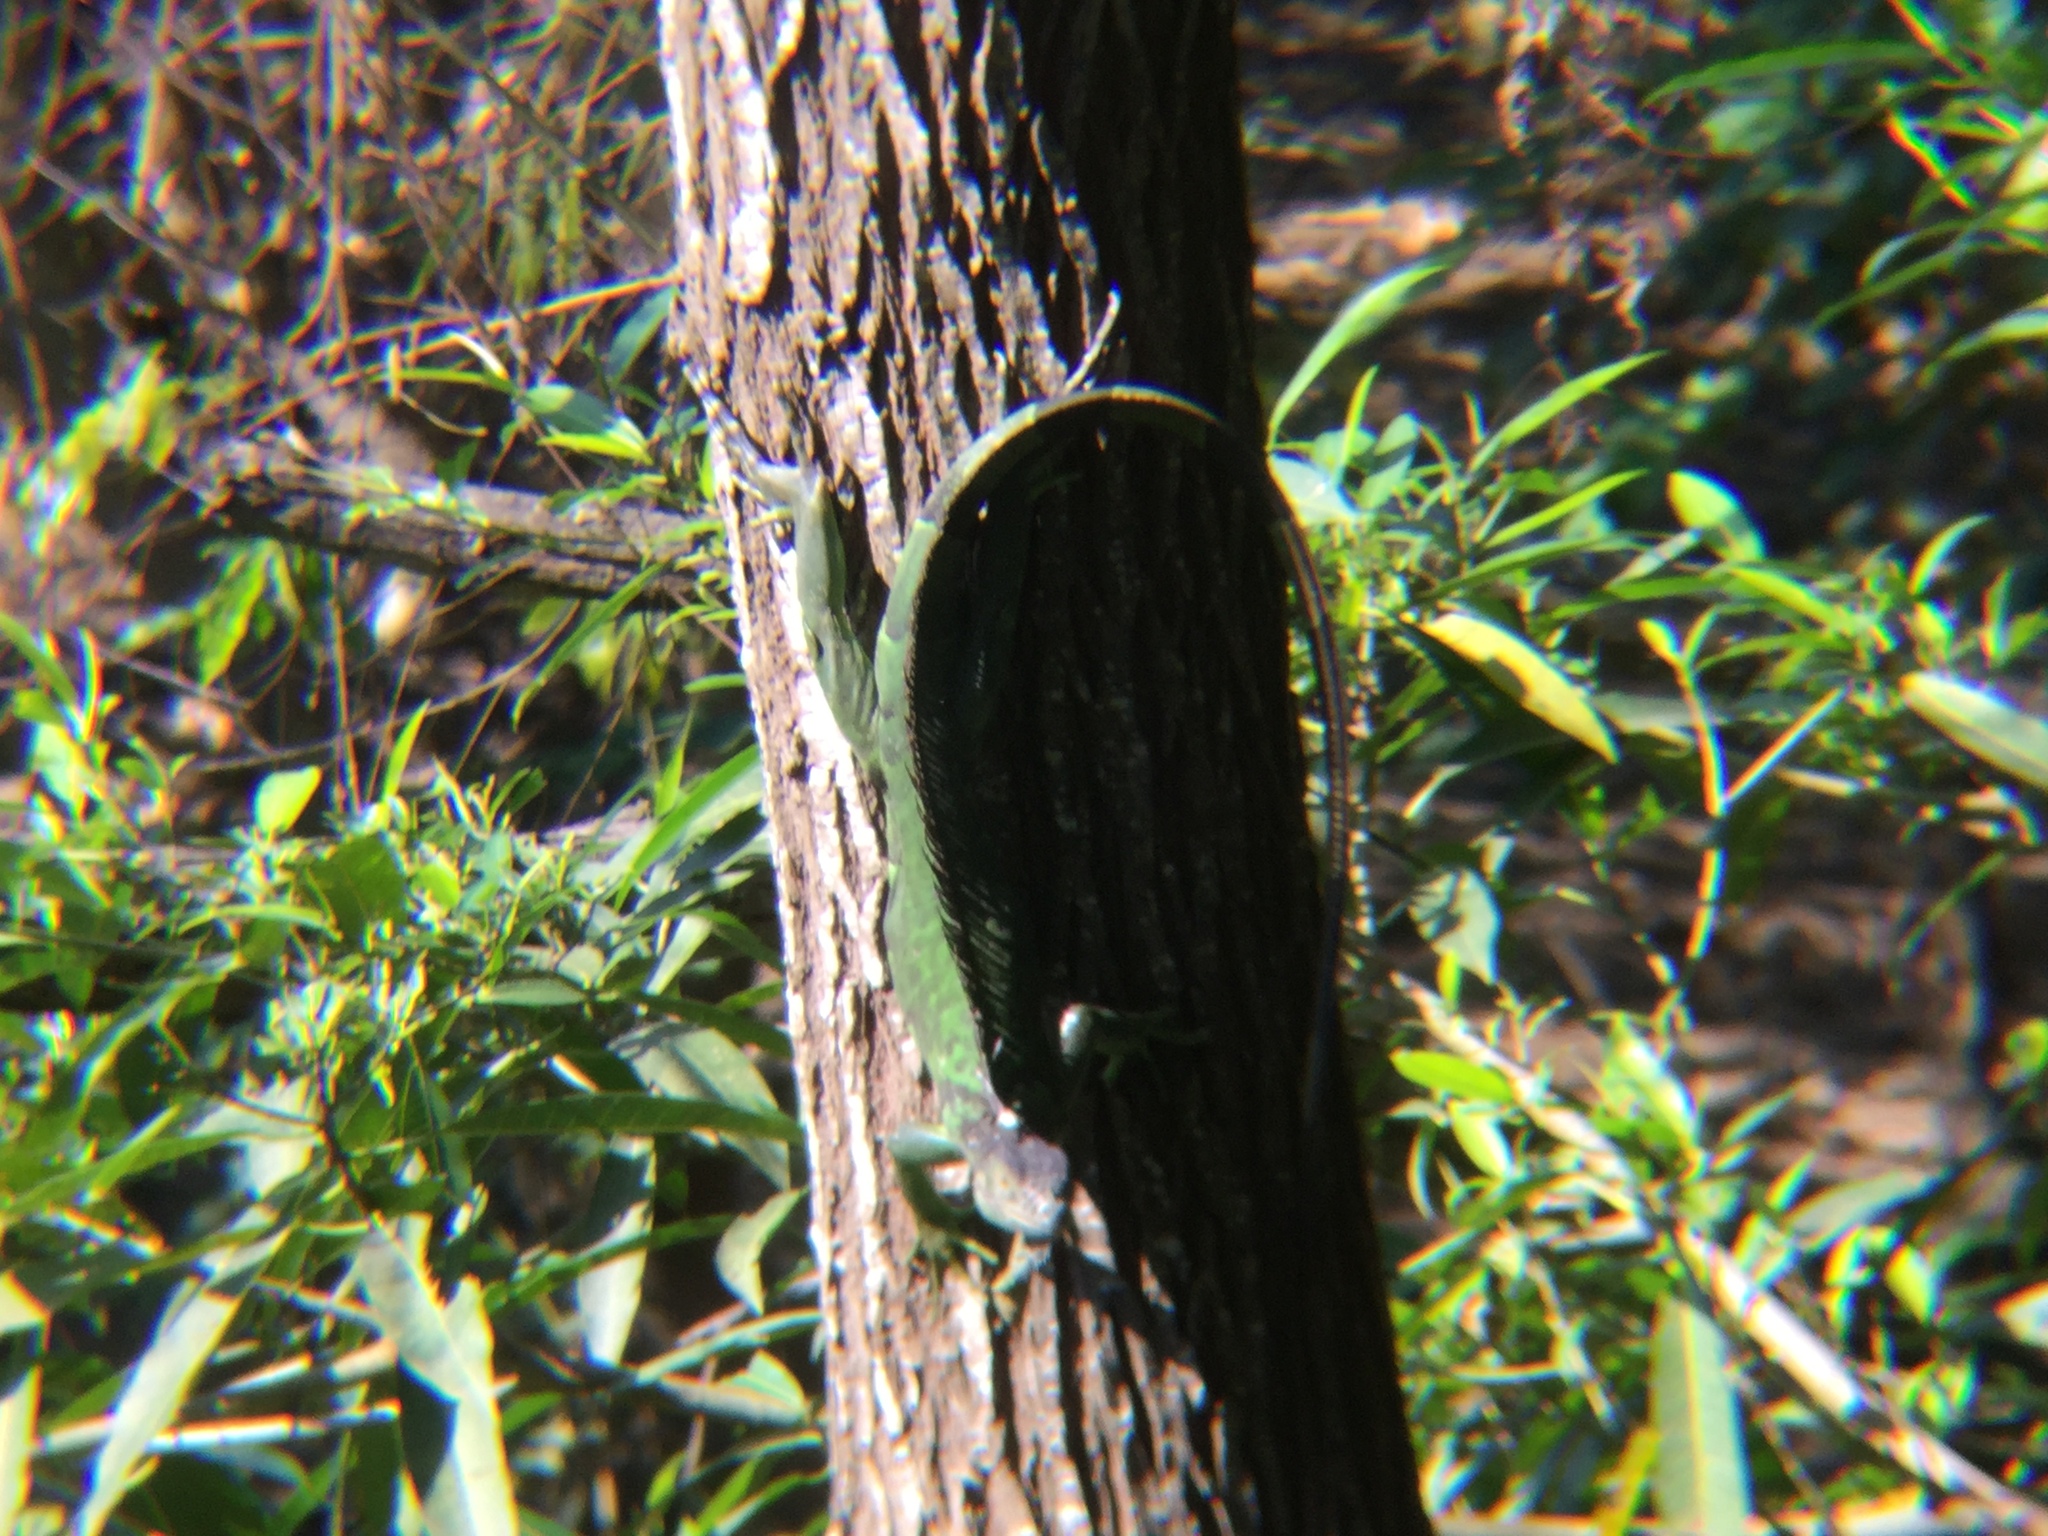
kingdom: Animalia
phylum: Chordata
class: Squamata
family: Iguanidae
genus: Iguana
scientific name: Iguana iguana
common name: Green iguana
